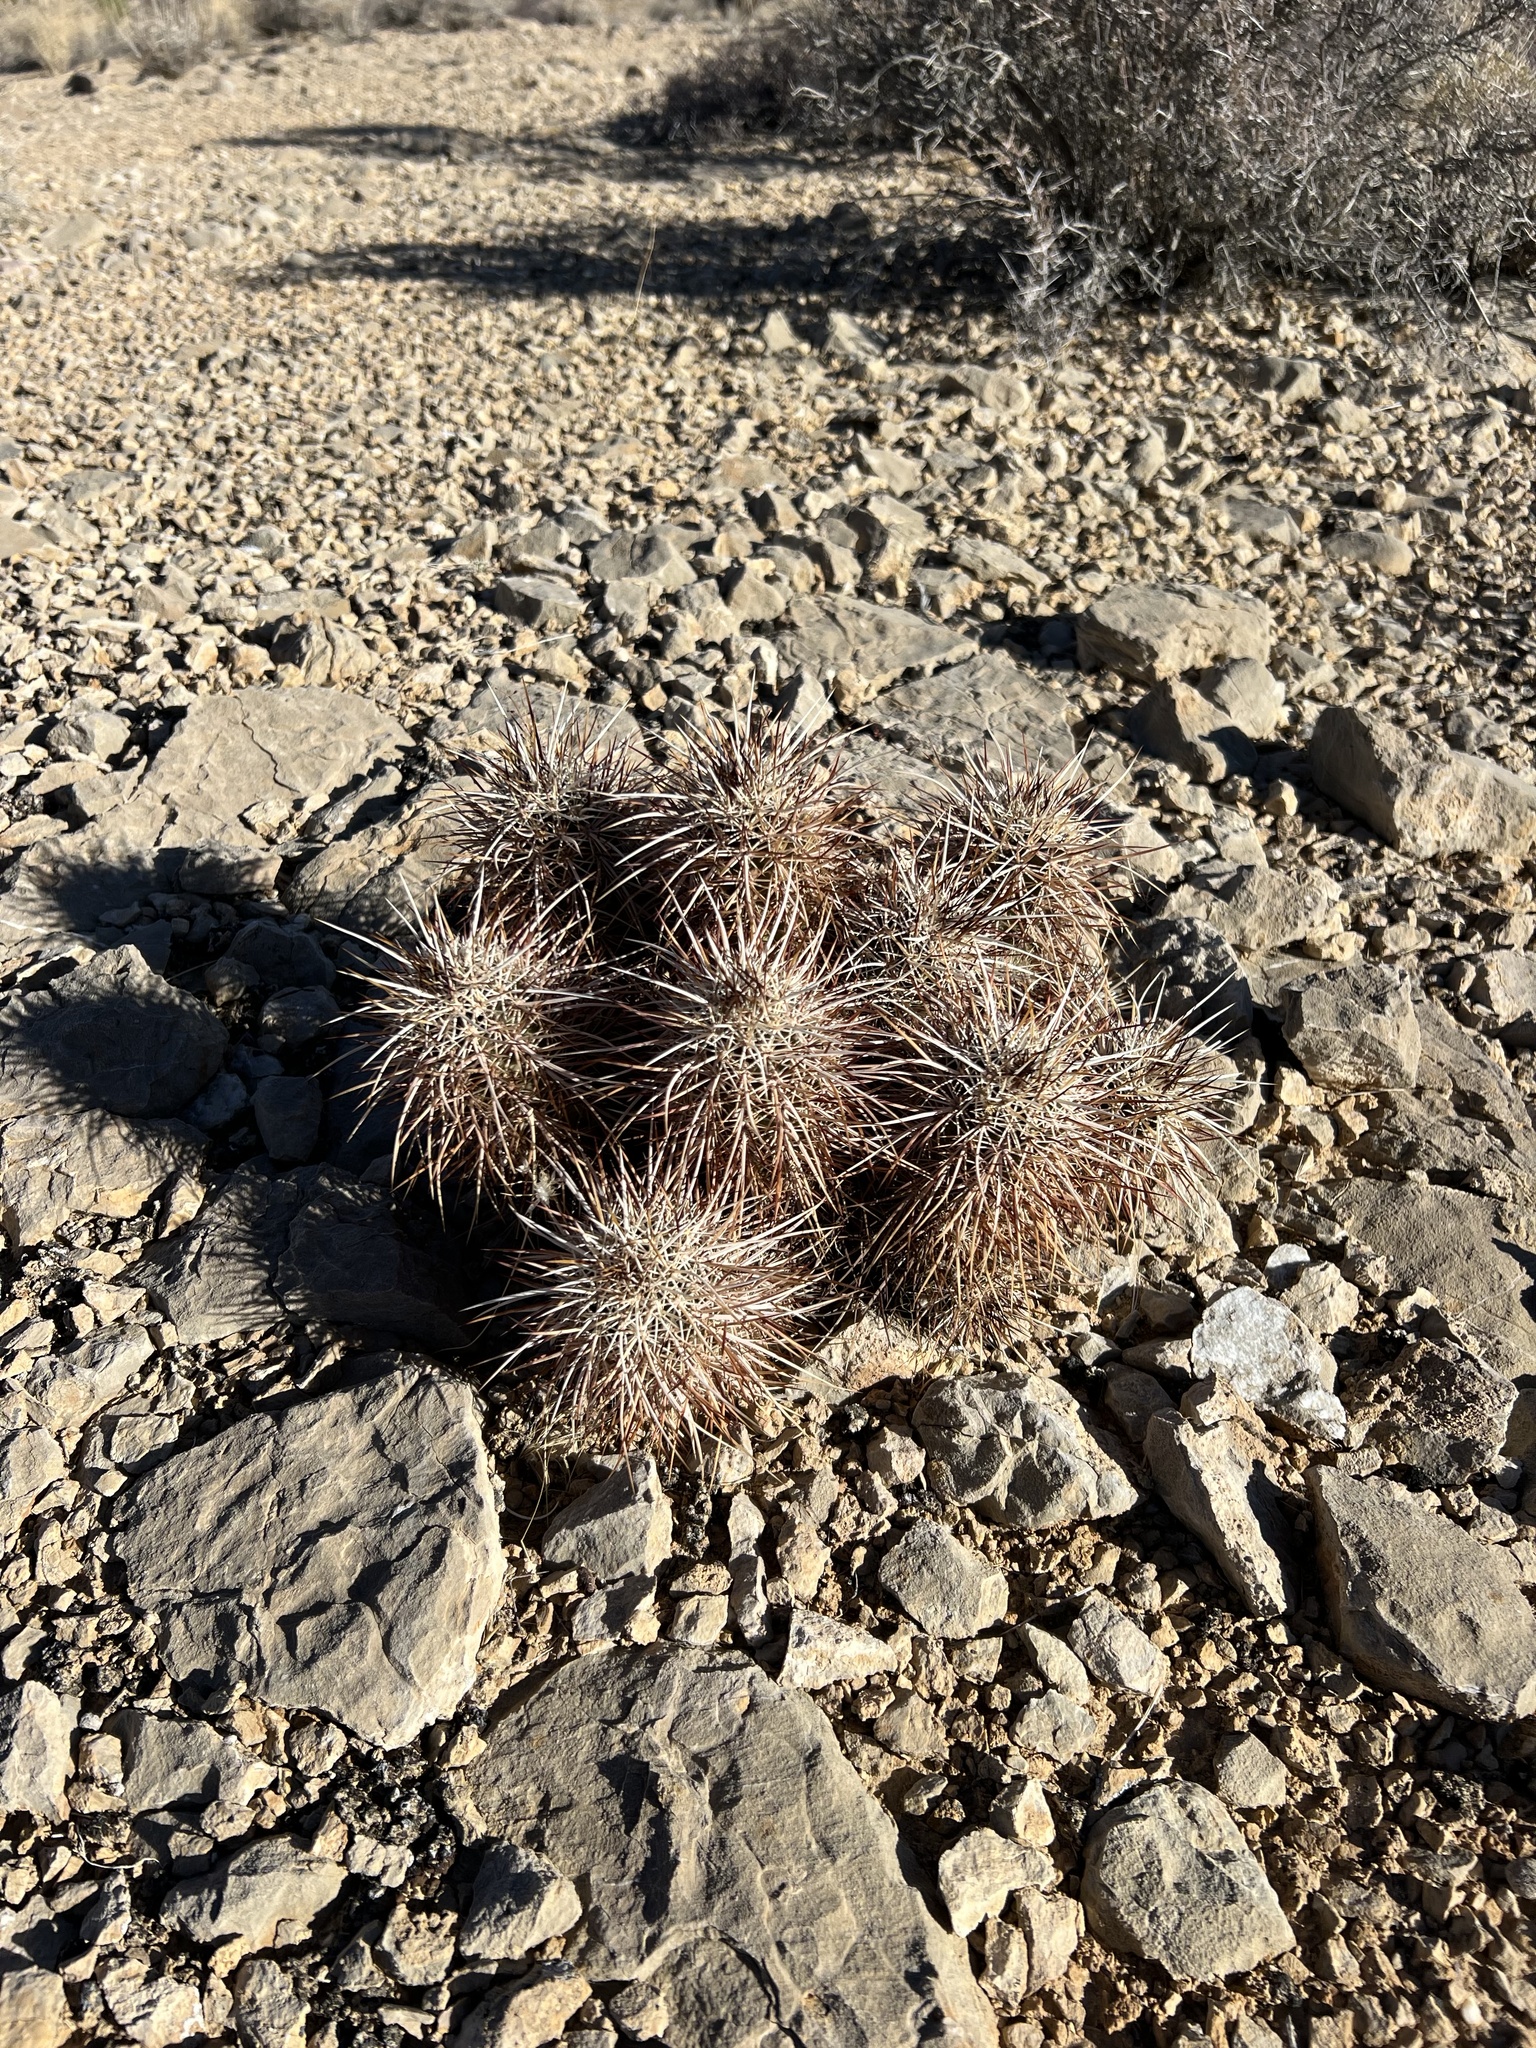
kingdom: Plantae
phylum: Tracheophyta
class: Magnoliopsida
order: Caryophyllales
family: Cactaceae
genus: Echinocereus
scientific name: Echinocereus engelmannii
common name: Engelmann's hedgehog cactus
